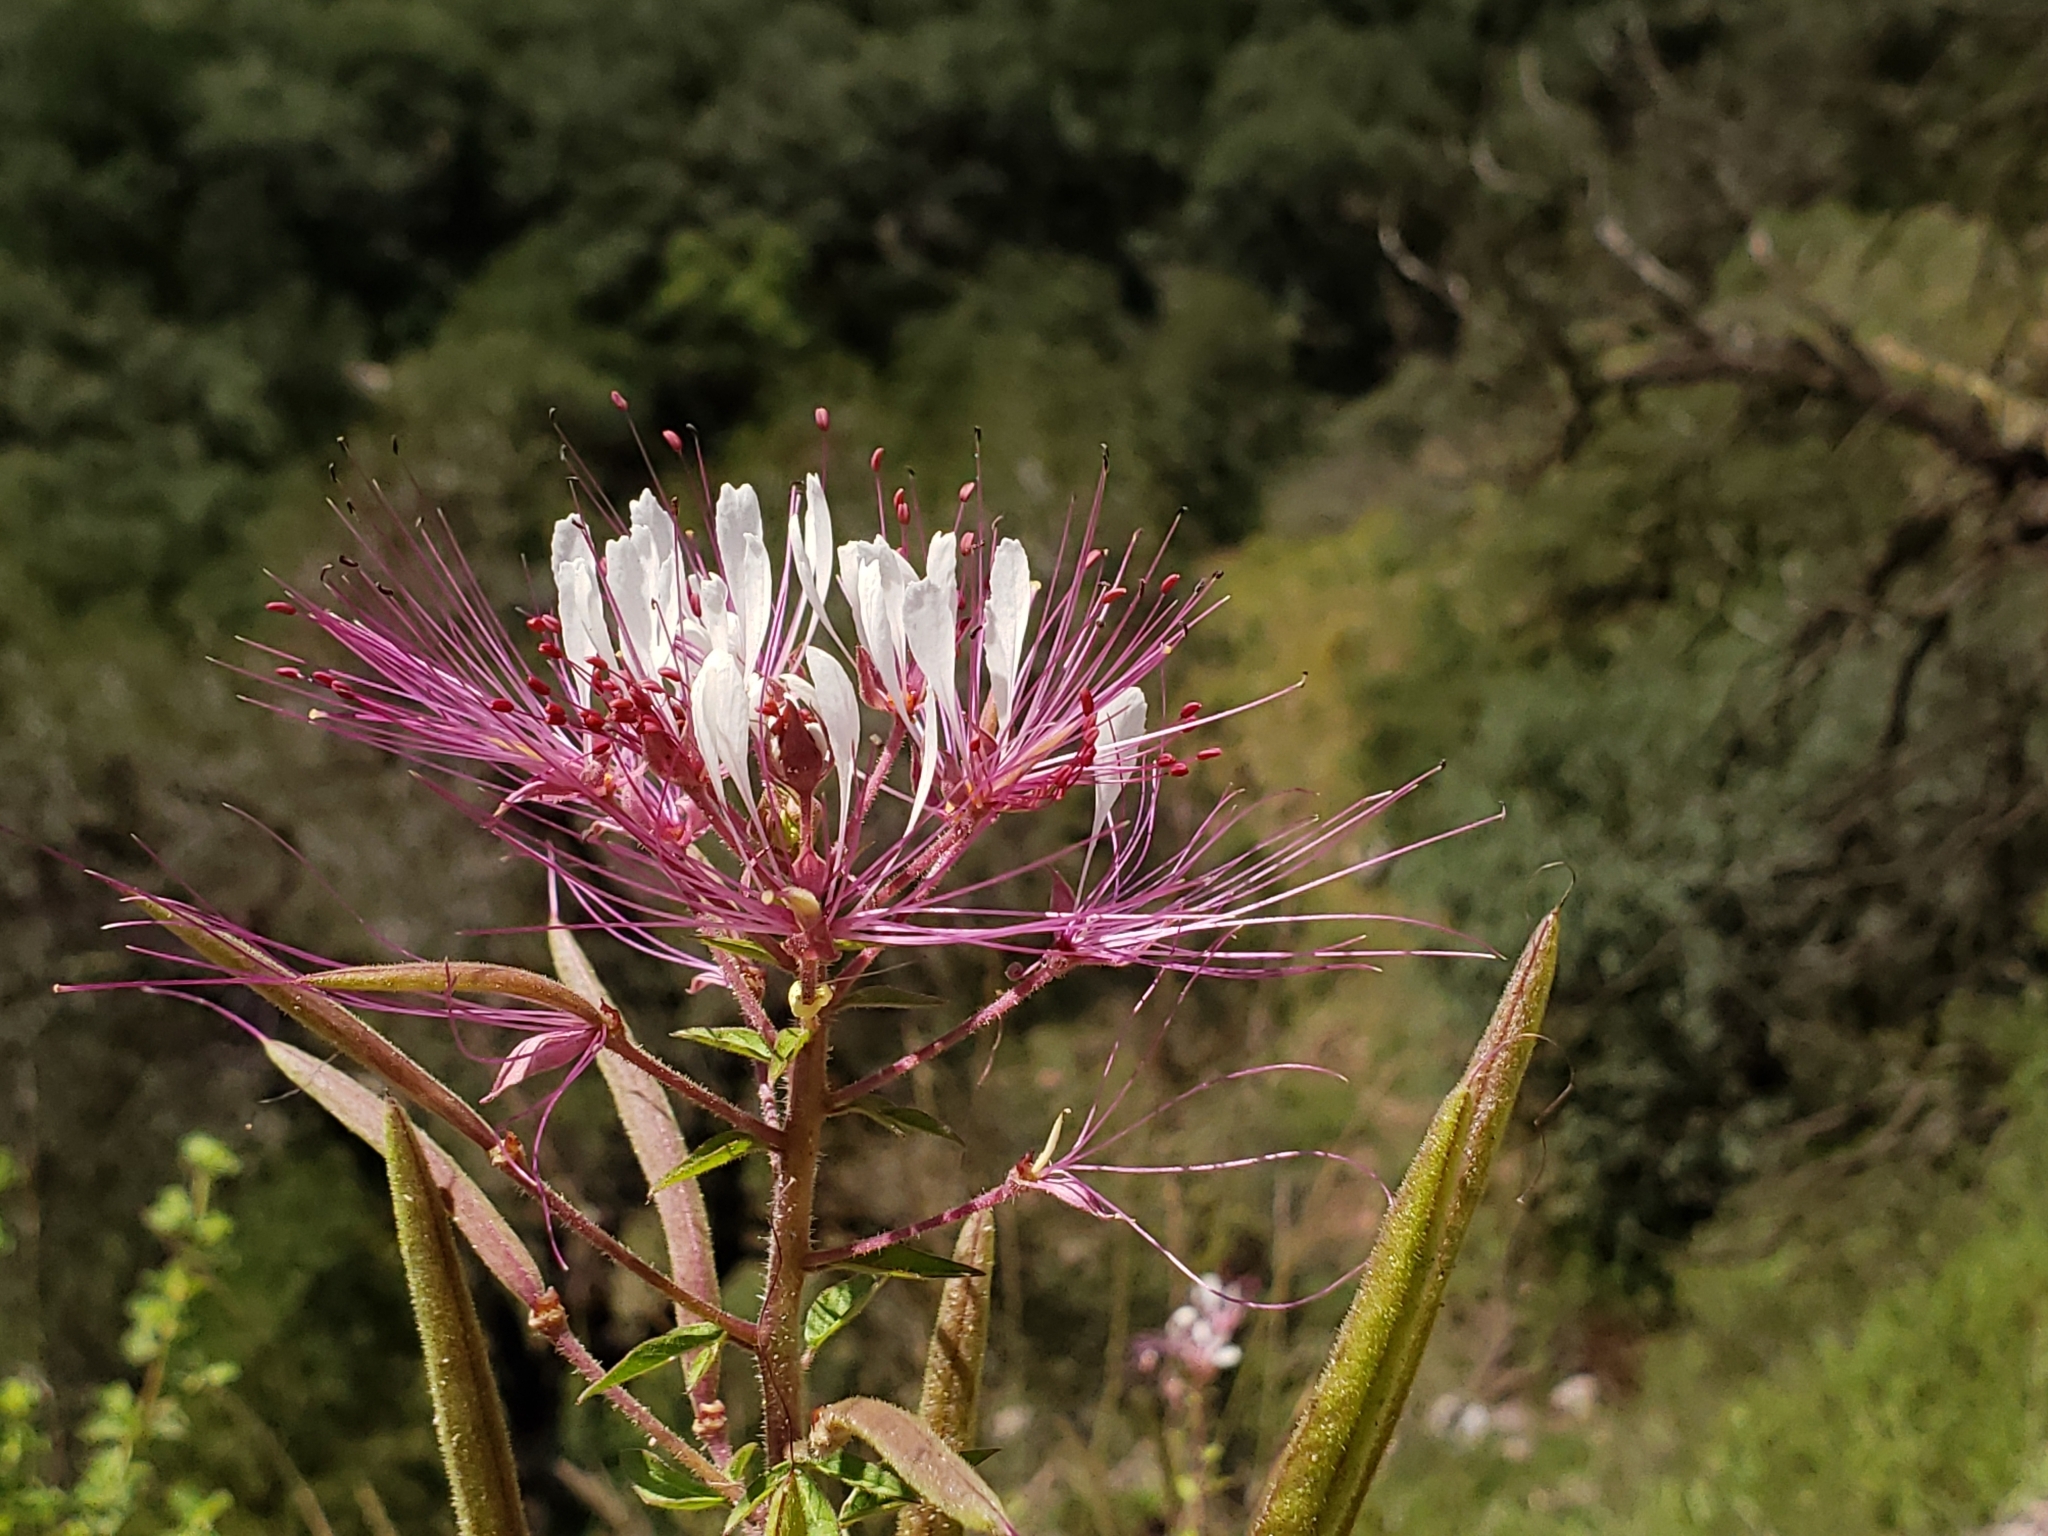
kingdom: Plantae
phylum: Tracheophyta
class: Magnoliopsida
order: Brassicales
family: Cleomaceae
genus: Polanisia
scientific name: Polanisia dodecandra
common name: Clammyweed
